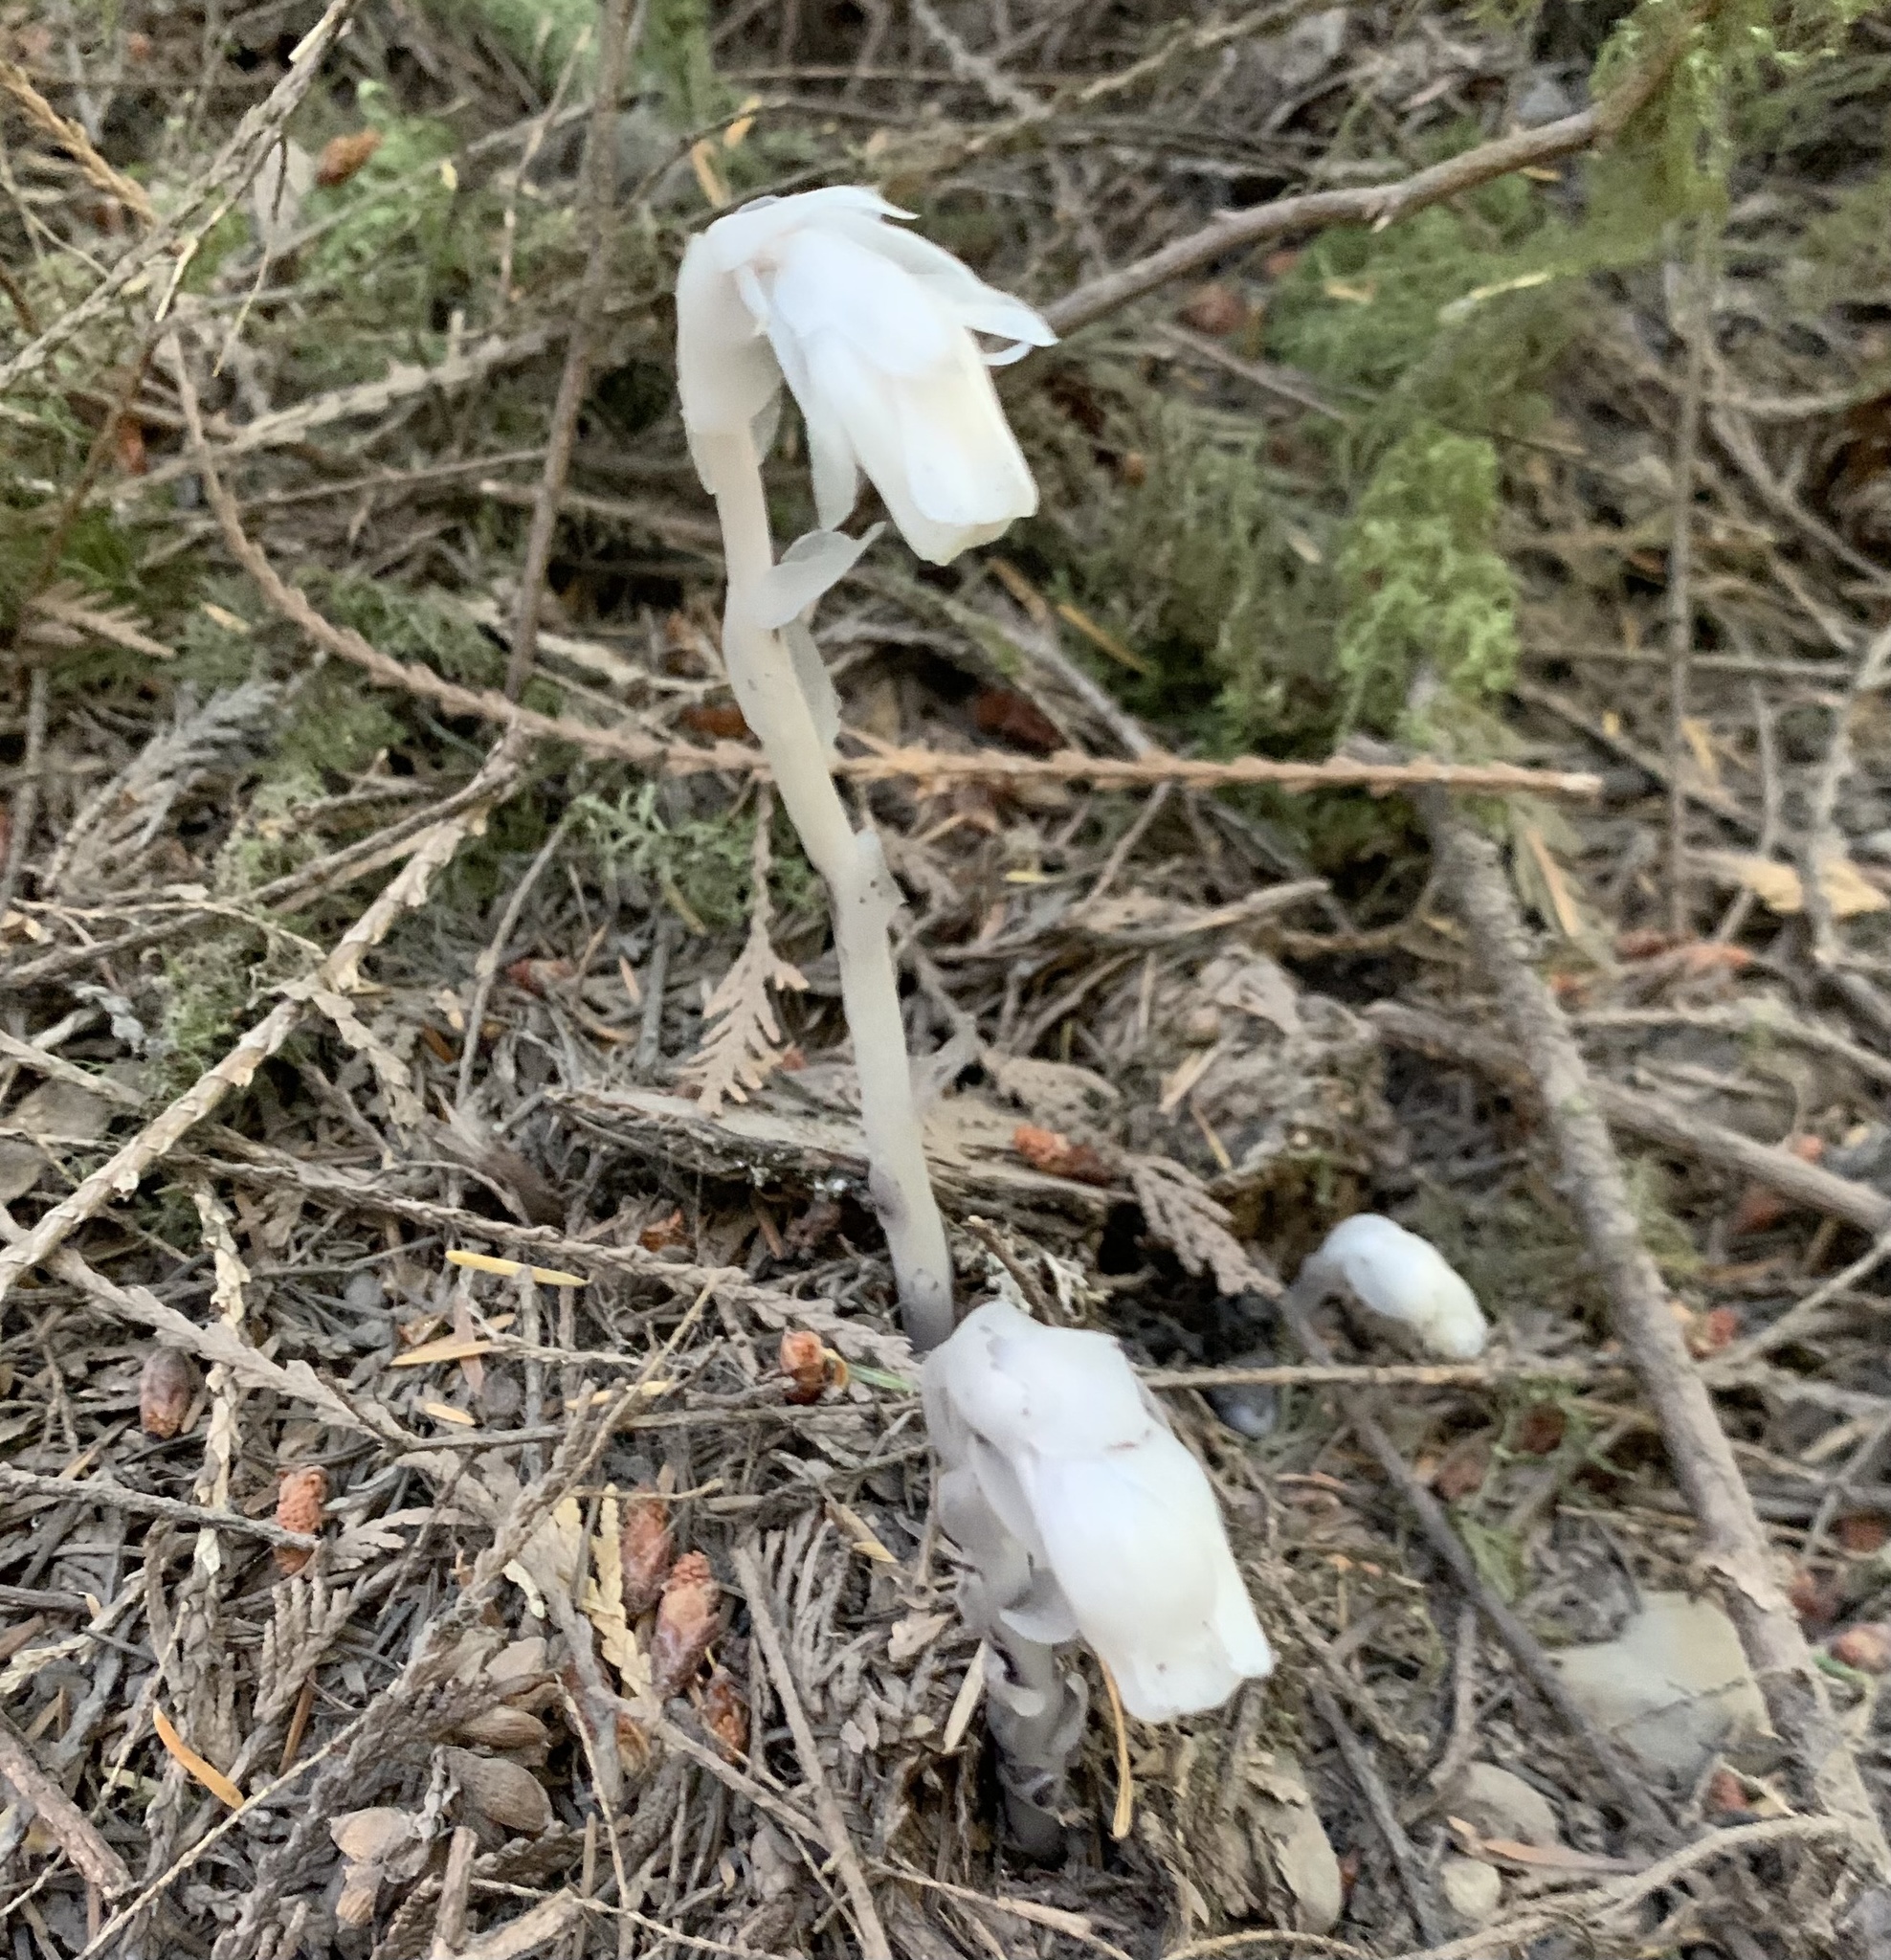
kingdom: Plantae
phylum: Tracheophyta
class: Magnoliopsida
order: Ericales
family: Ericaceae
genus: Monotropa
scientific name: Monotropa uniflora
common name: Convulsion root
